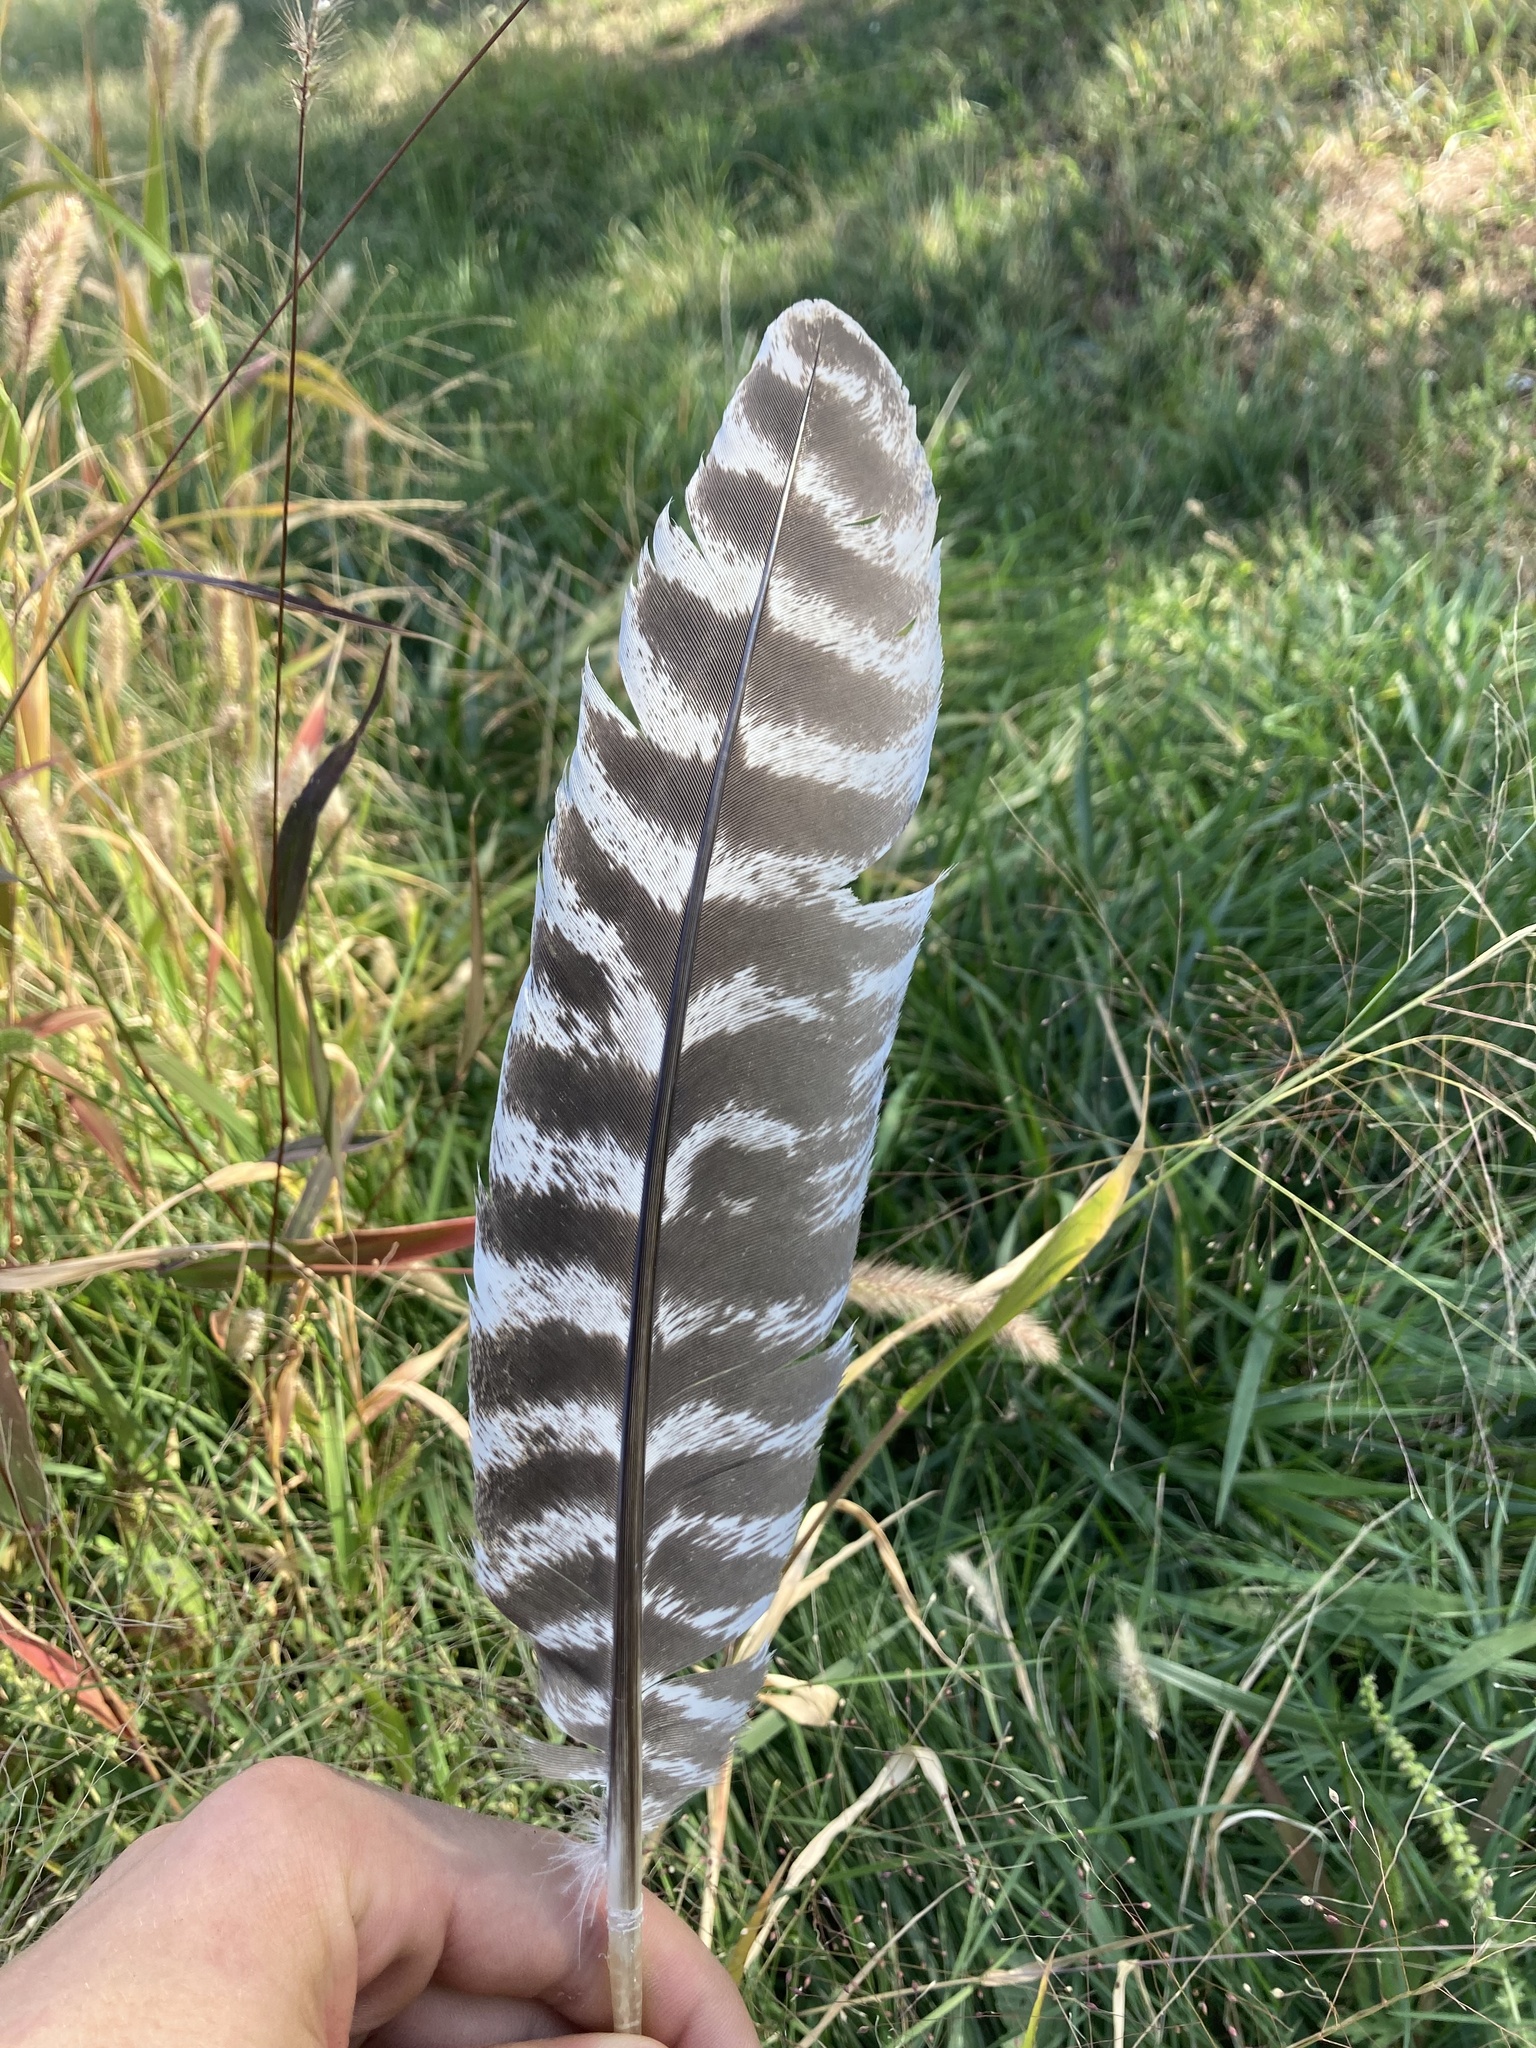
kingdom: Animalia
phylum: Chordata
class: Aves
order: Galliformes
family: Phasianidae
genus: Meleagris
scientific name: Meleagris gallopavo
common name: Wild turkey
